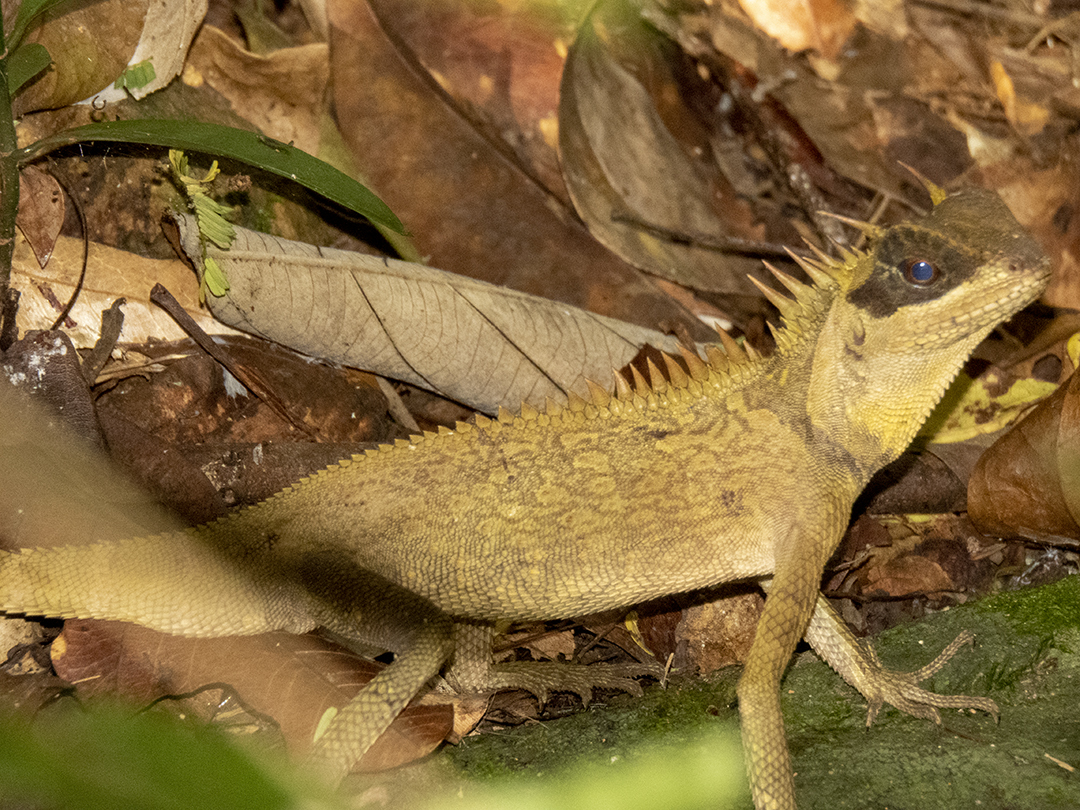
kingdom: Animalia
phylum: Chordata
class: Squamata
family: Agamidae
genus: Acanthosaura
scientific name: Acanthosaura cardamomensis
